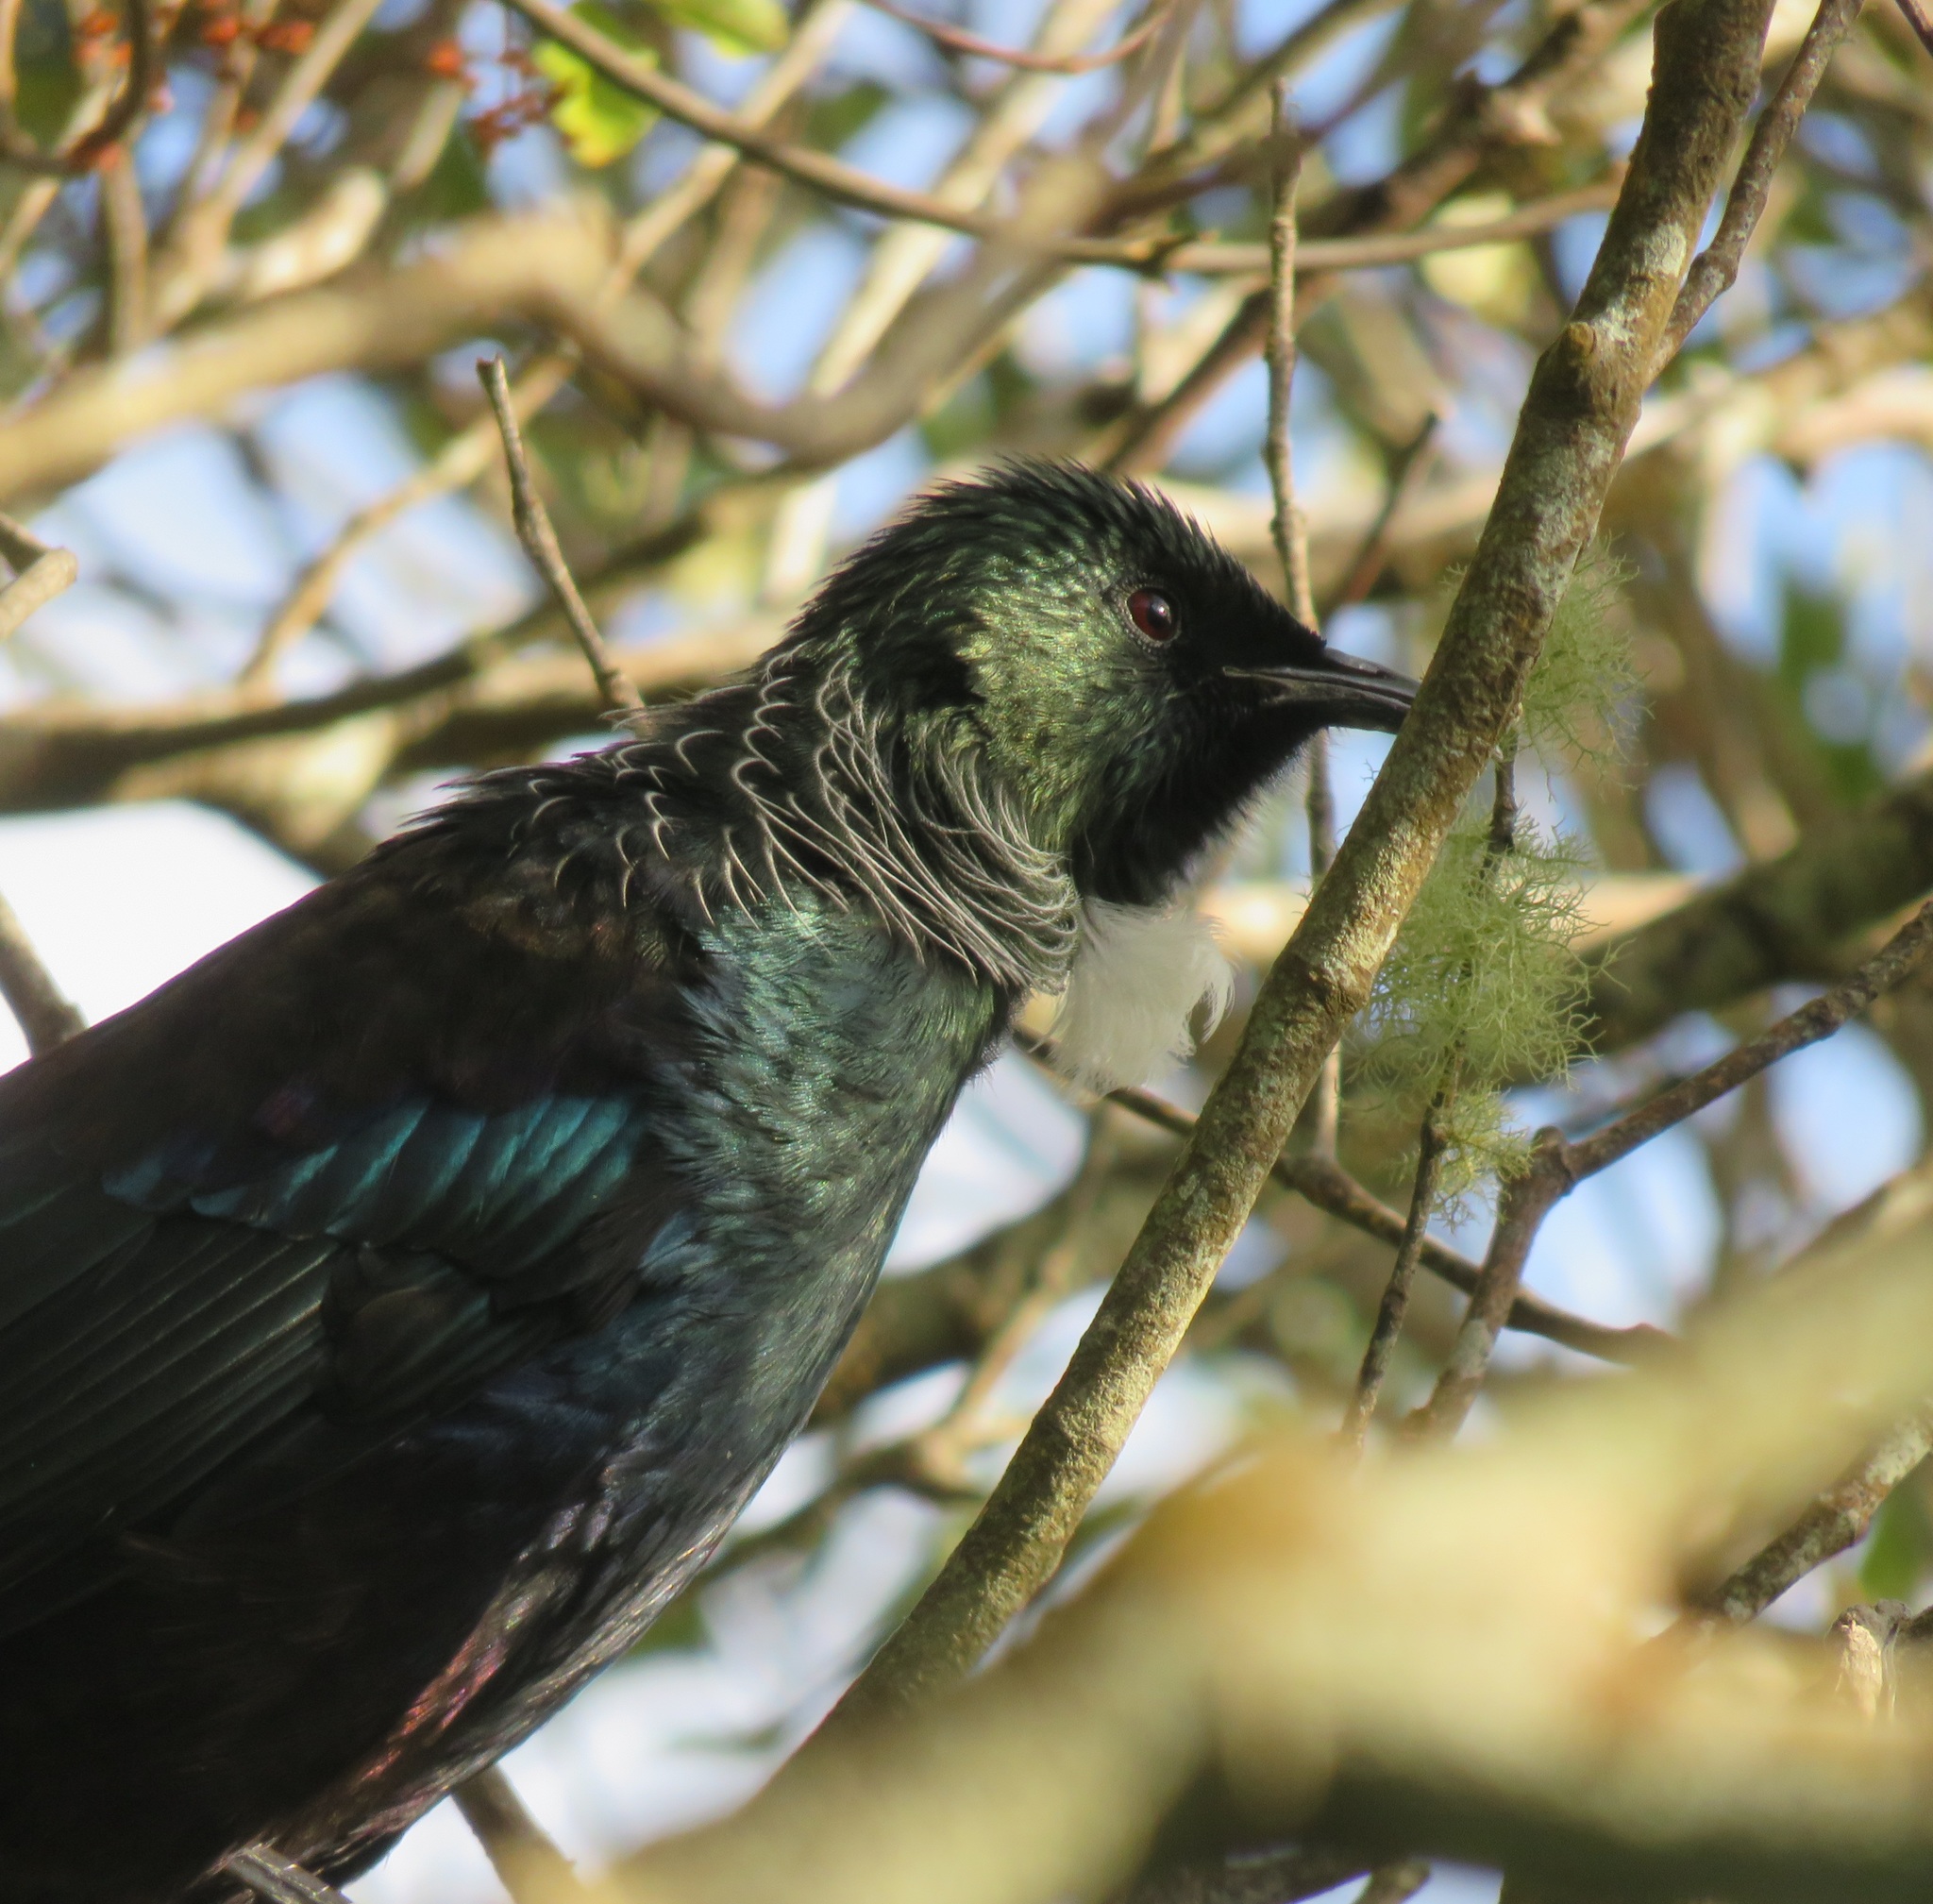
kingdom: Animalia
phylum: Chordata
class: Aves
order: Passeriformes
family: Meliphagidae
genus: Prosthemadera
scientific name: Prosthemadera novaeseelandiae
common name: Tui
